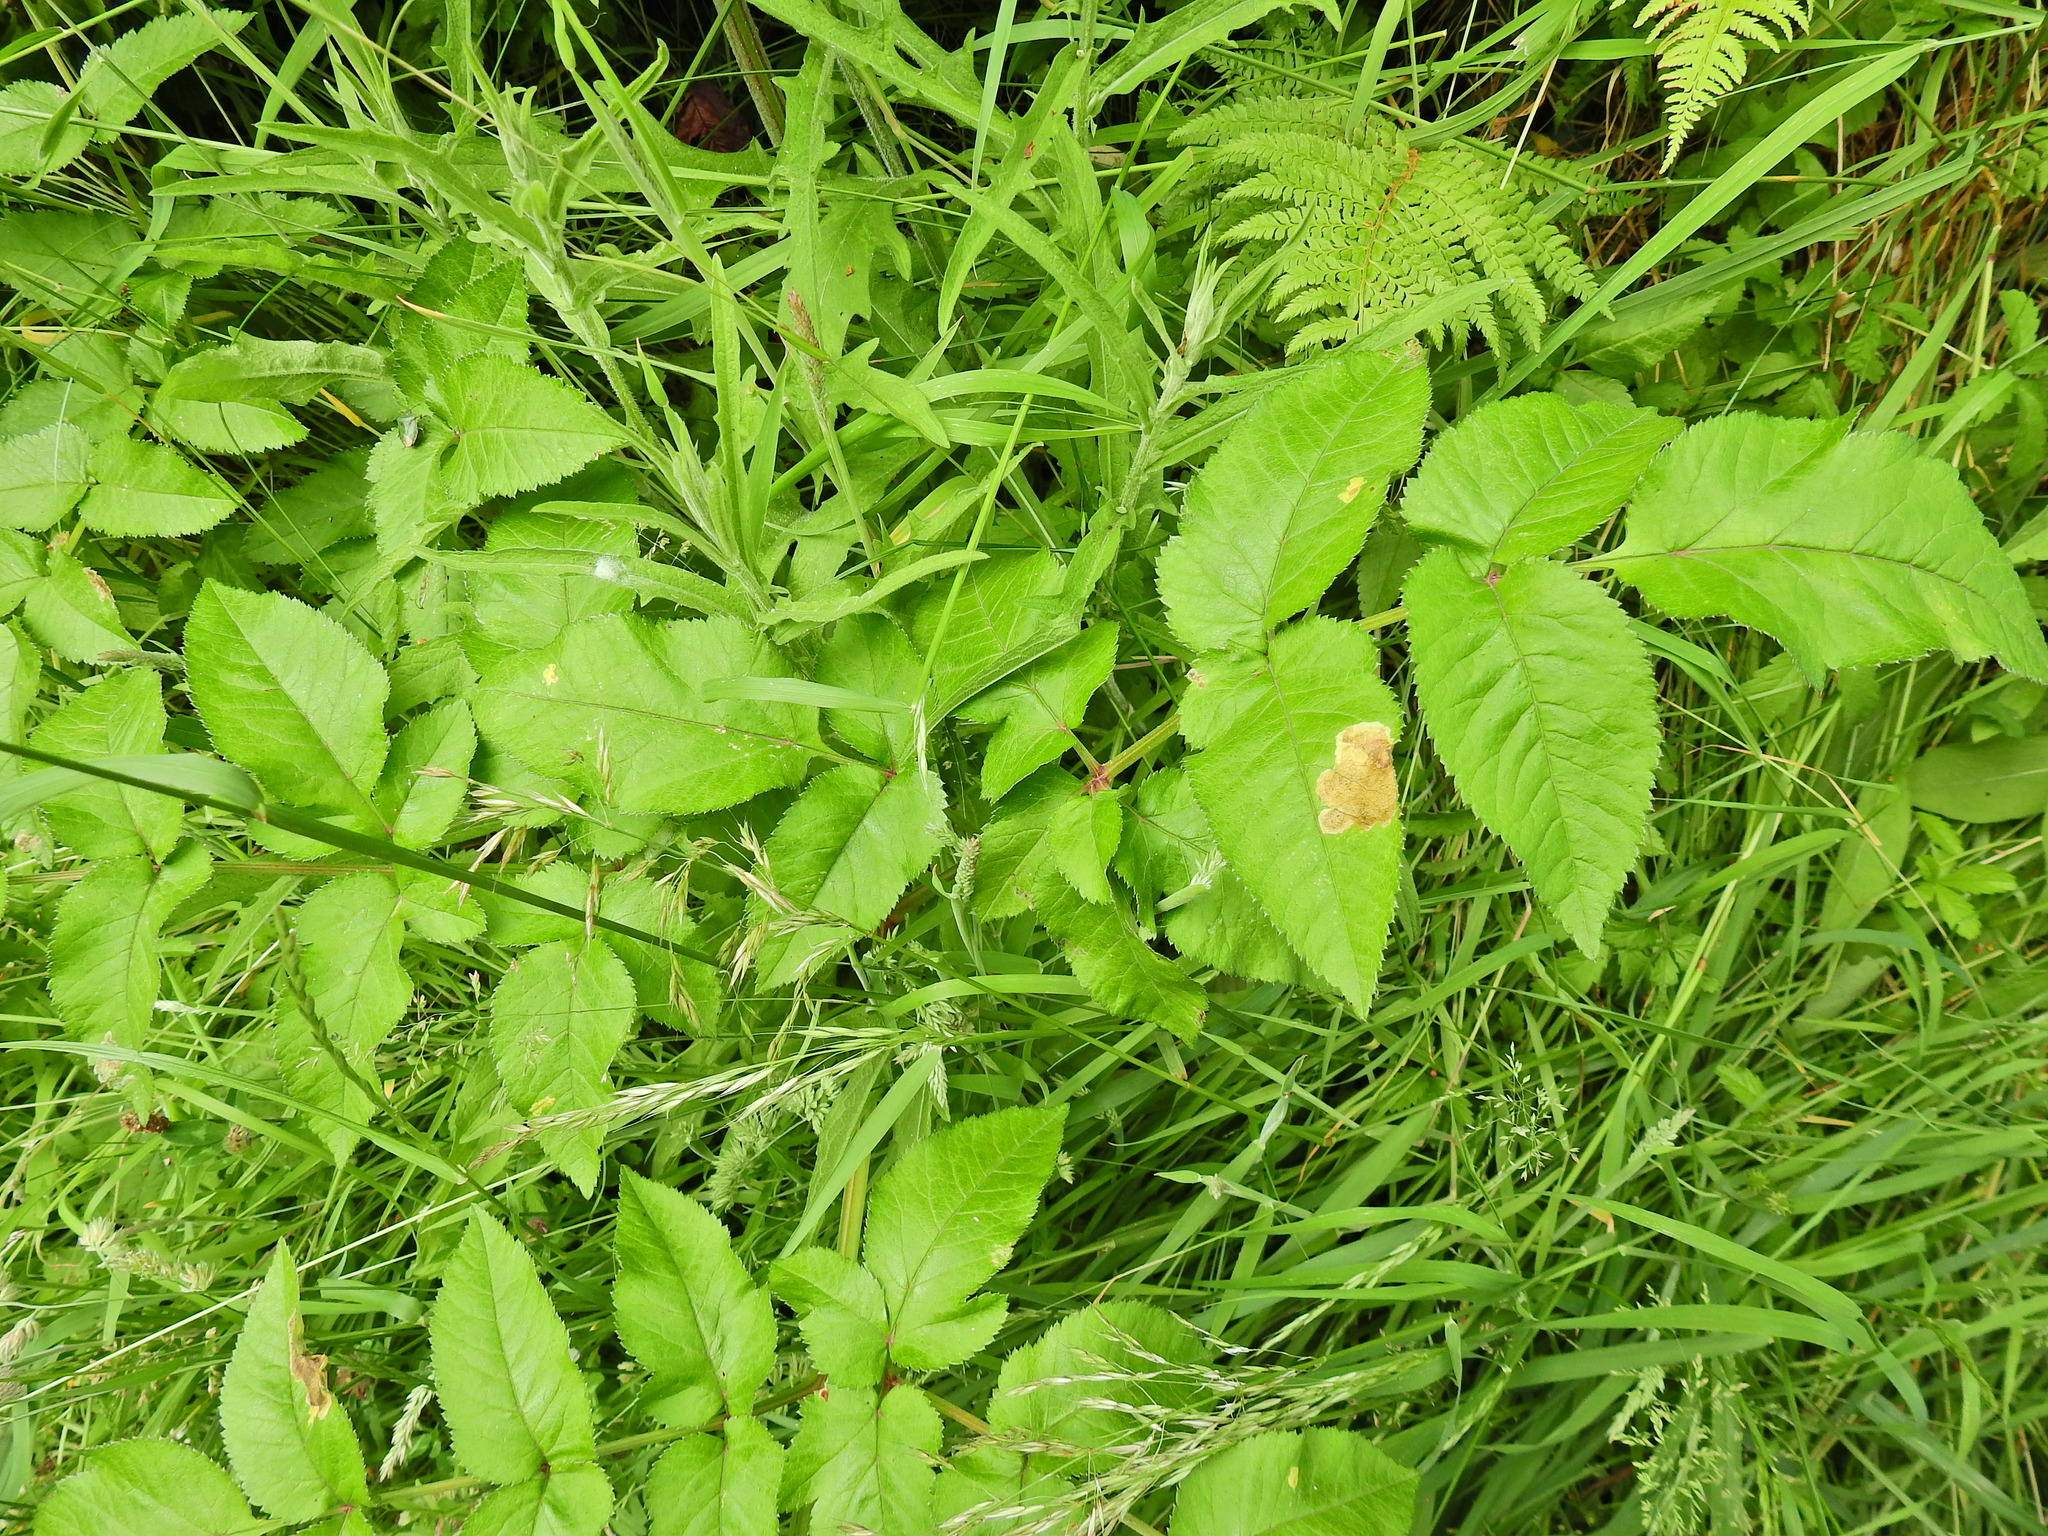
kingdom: Plantae
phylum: Tracheophyta
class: Magnoliopsida
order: Apiales
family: Apiaceae
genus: Angelica
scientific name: Angelica sylvestris
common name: Wild angelica
